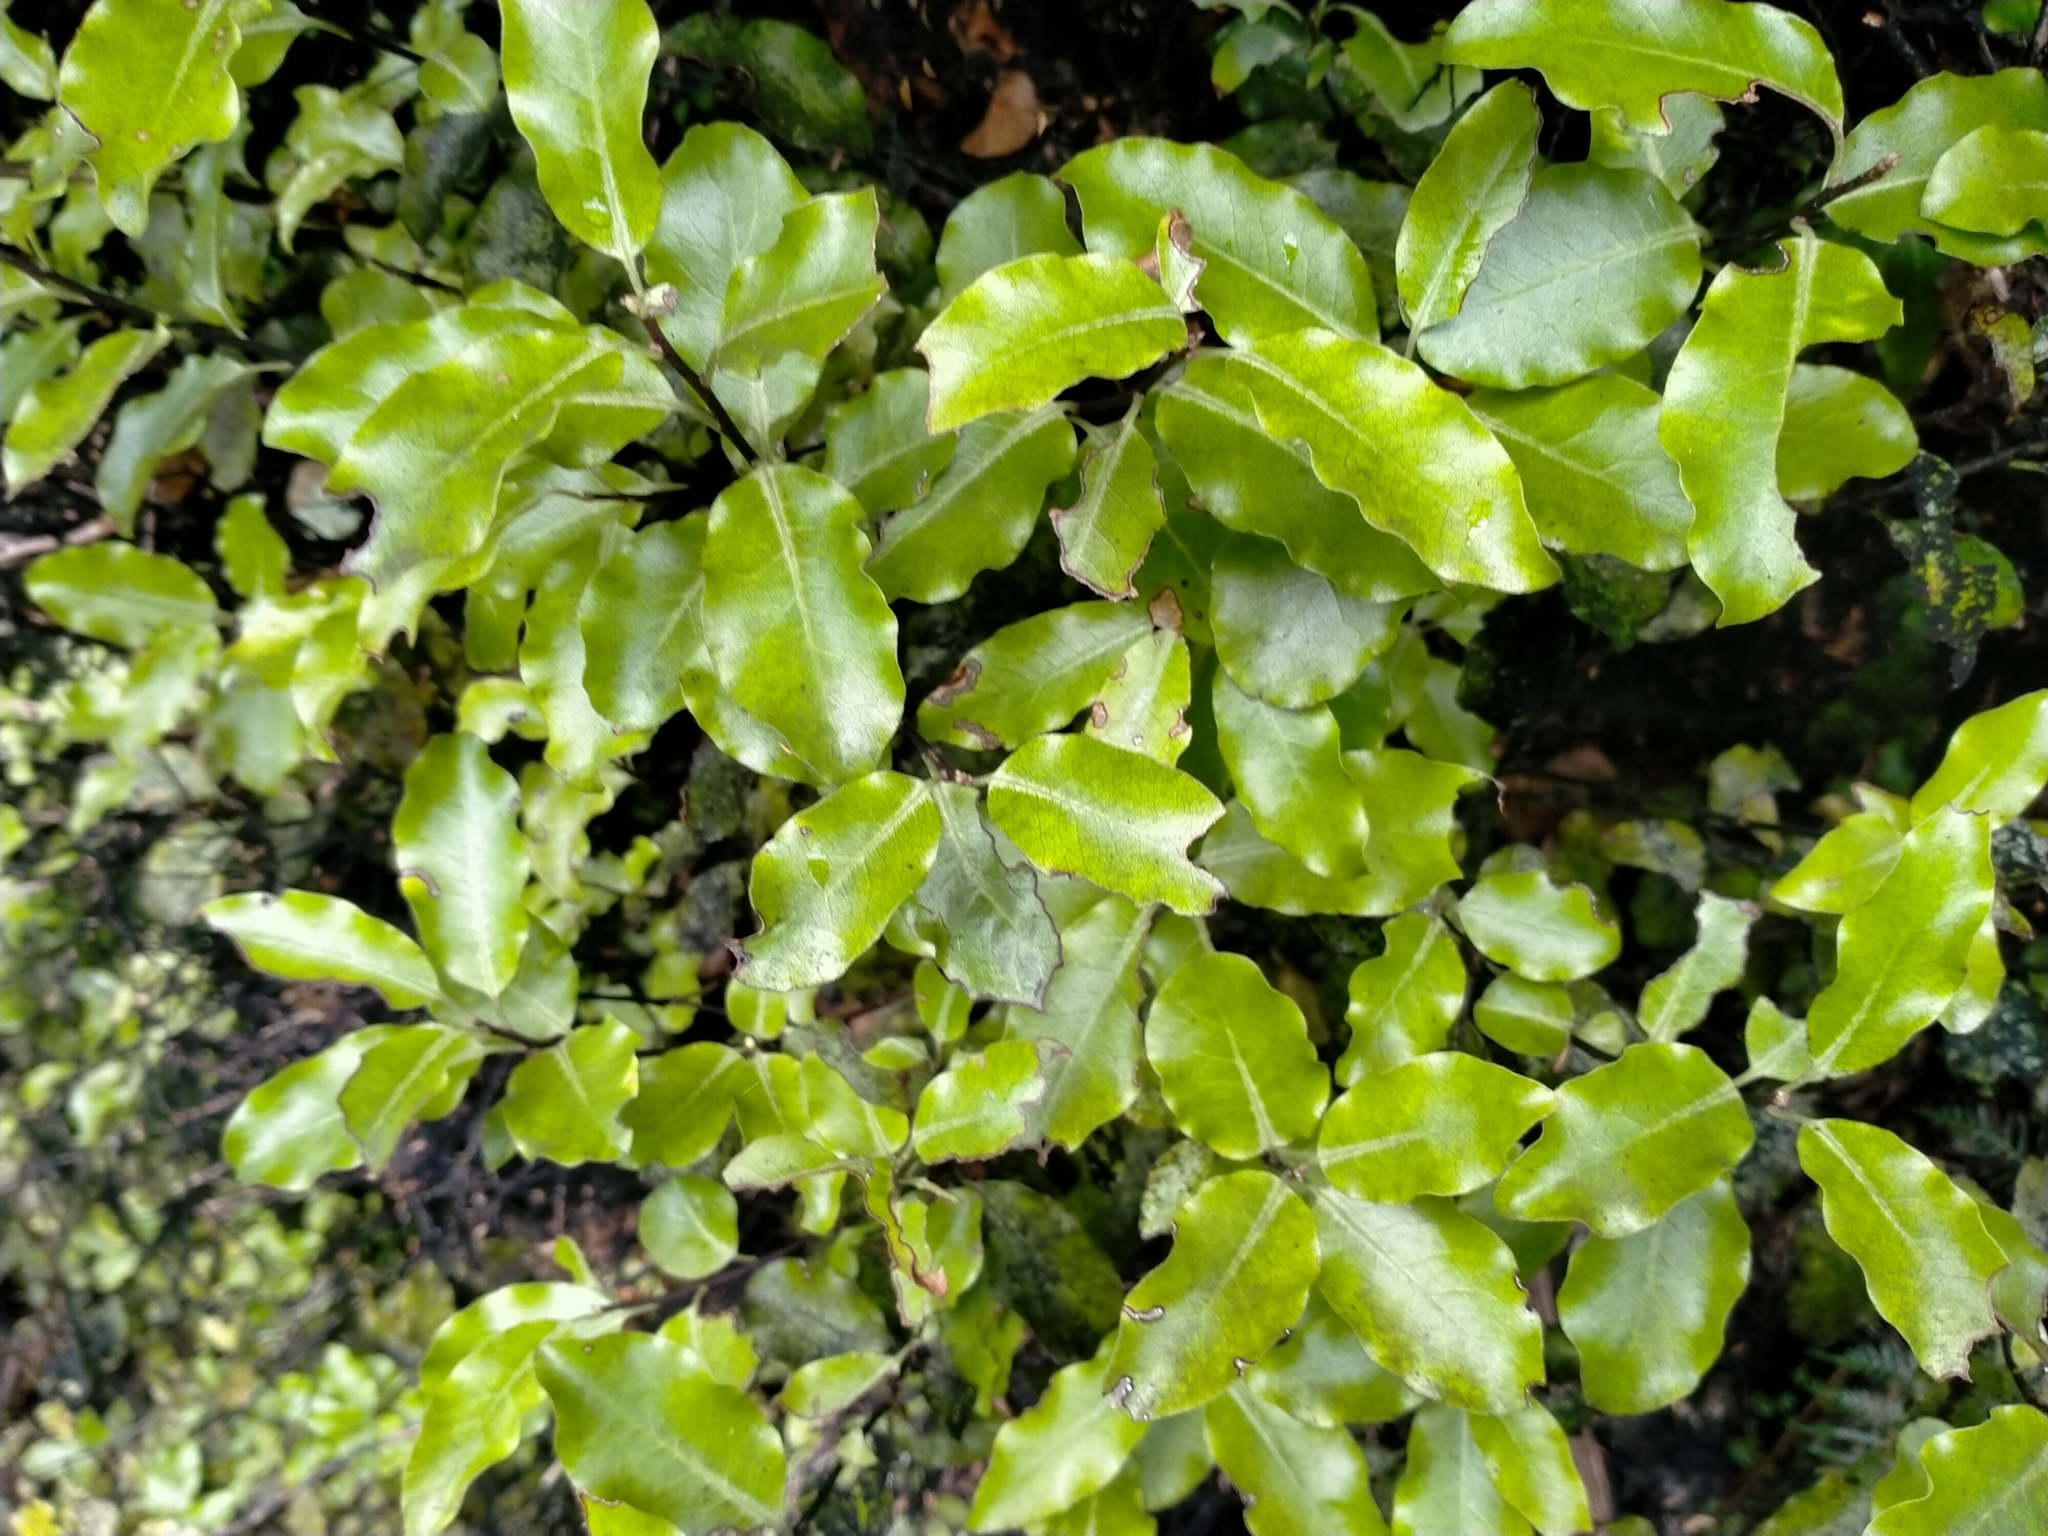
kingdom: Plantae
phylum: Tracheophyta
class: Magnoliopsida
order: Apiales
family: Pittosporaceae
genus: Pittosporum
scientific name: Pittosporum tenuifolium
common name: Kohuhu
